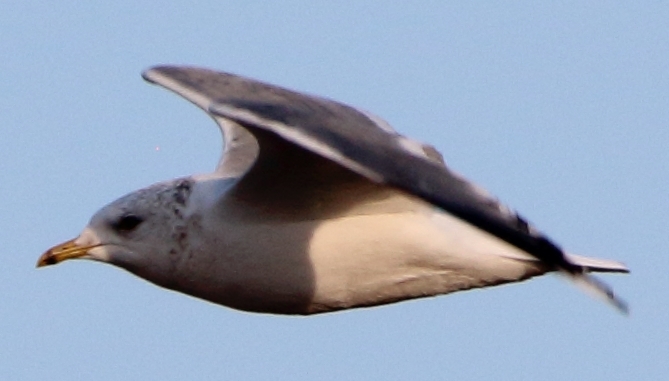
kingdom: Animalia
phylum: Chordata
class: Aves
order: Charadriiformes
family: Laridae
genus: Larus
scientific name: Larus canus
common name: Mew gull
